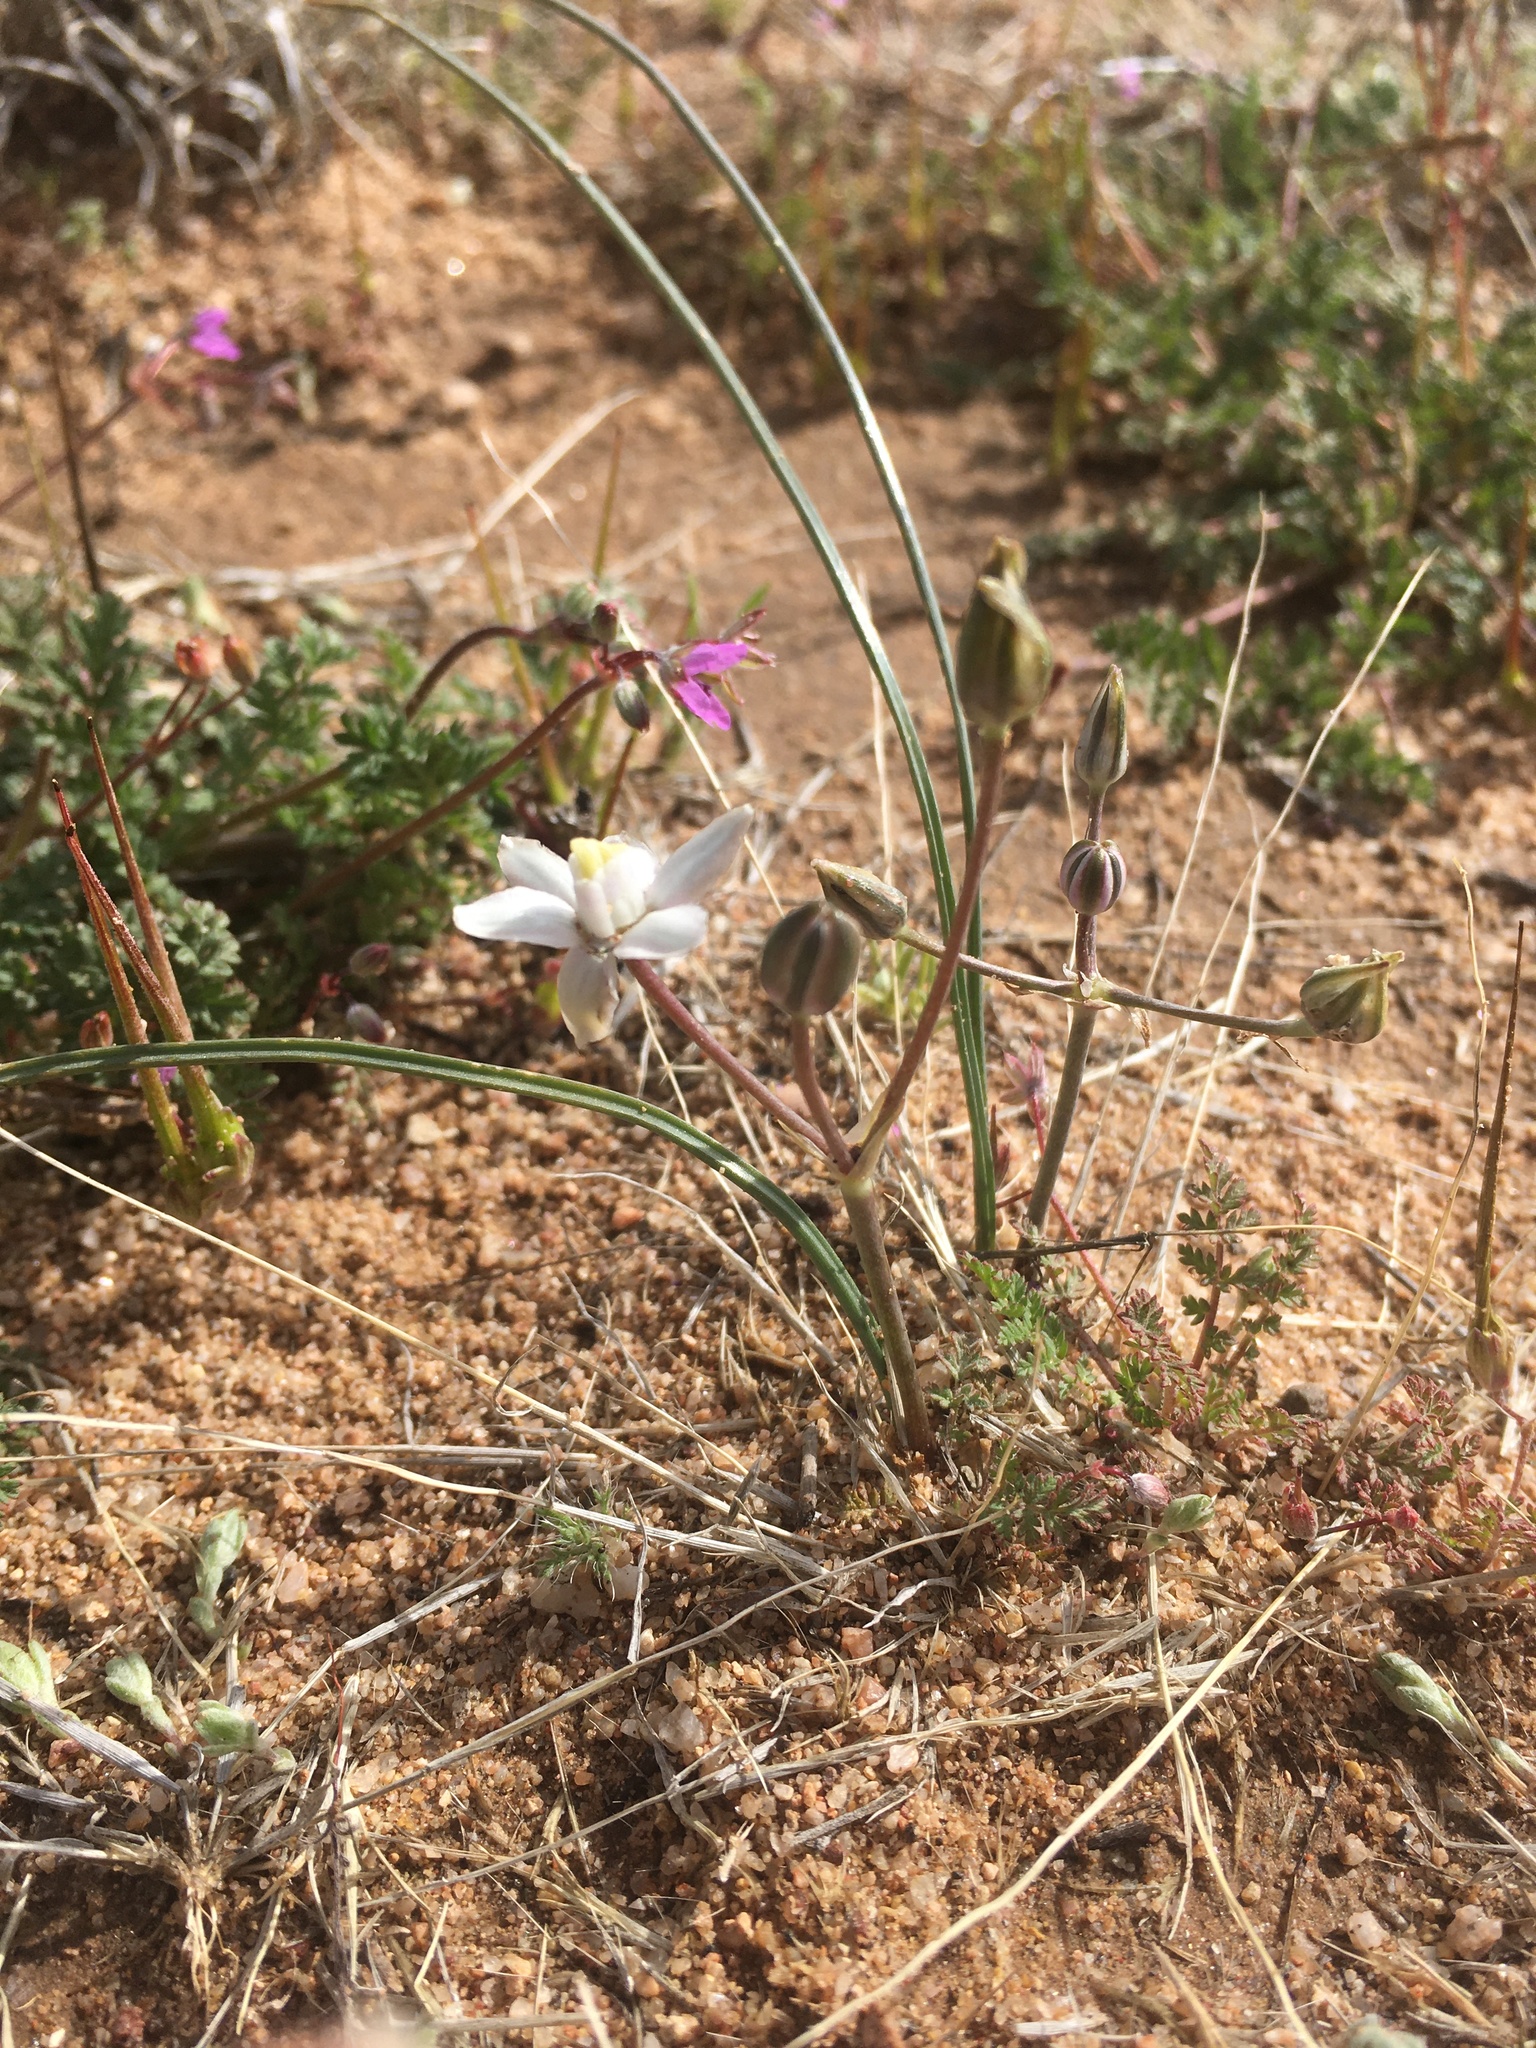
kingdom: Plantae
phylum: Tracheophyta
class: Liliopsida
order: Asparagales
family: Asparagaceae
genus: Muilla
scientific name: Muilla lordsburgana
